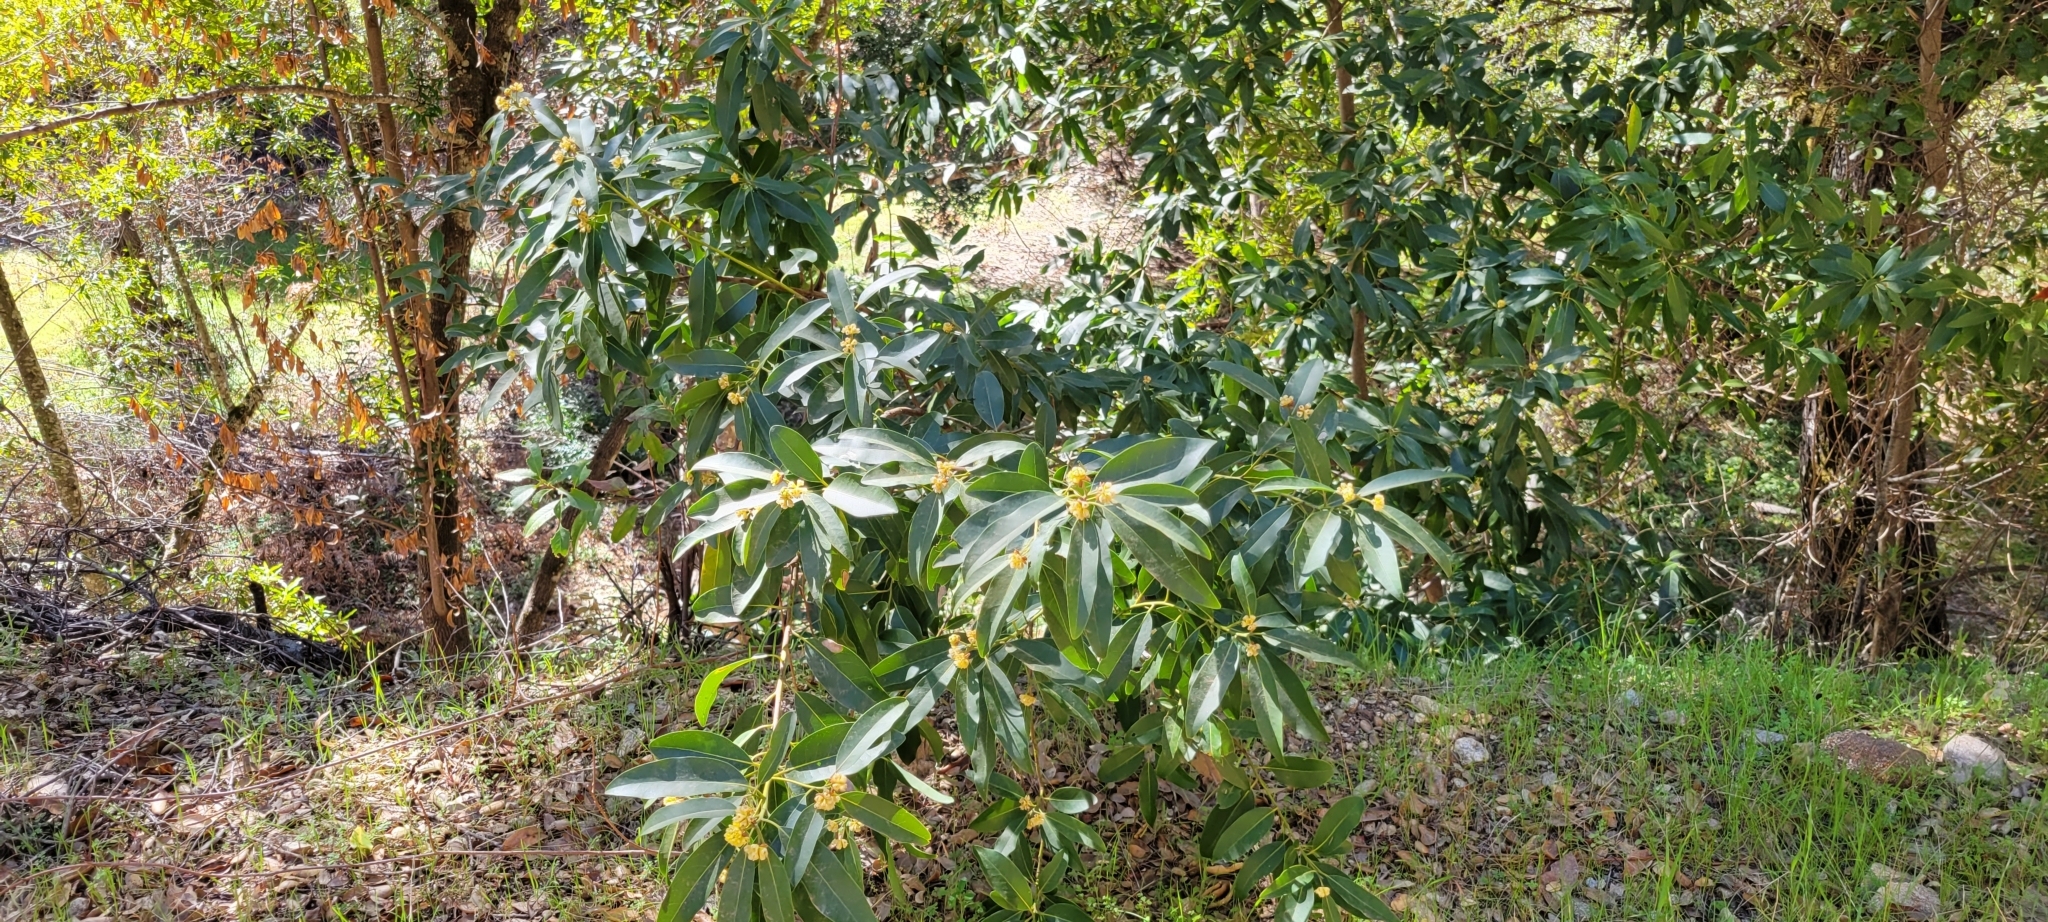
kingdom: Plantae
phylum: Tracheophyta
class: Magnoliopsida
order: Laurales
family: Lauraceae
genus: Umbellularia
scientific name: Umbellularia californica
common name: California bay
